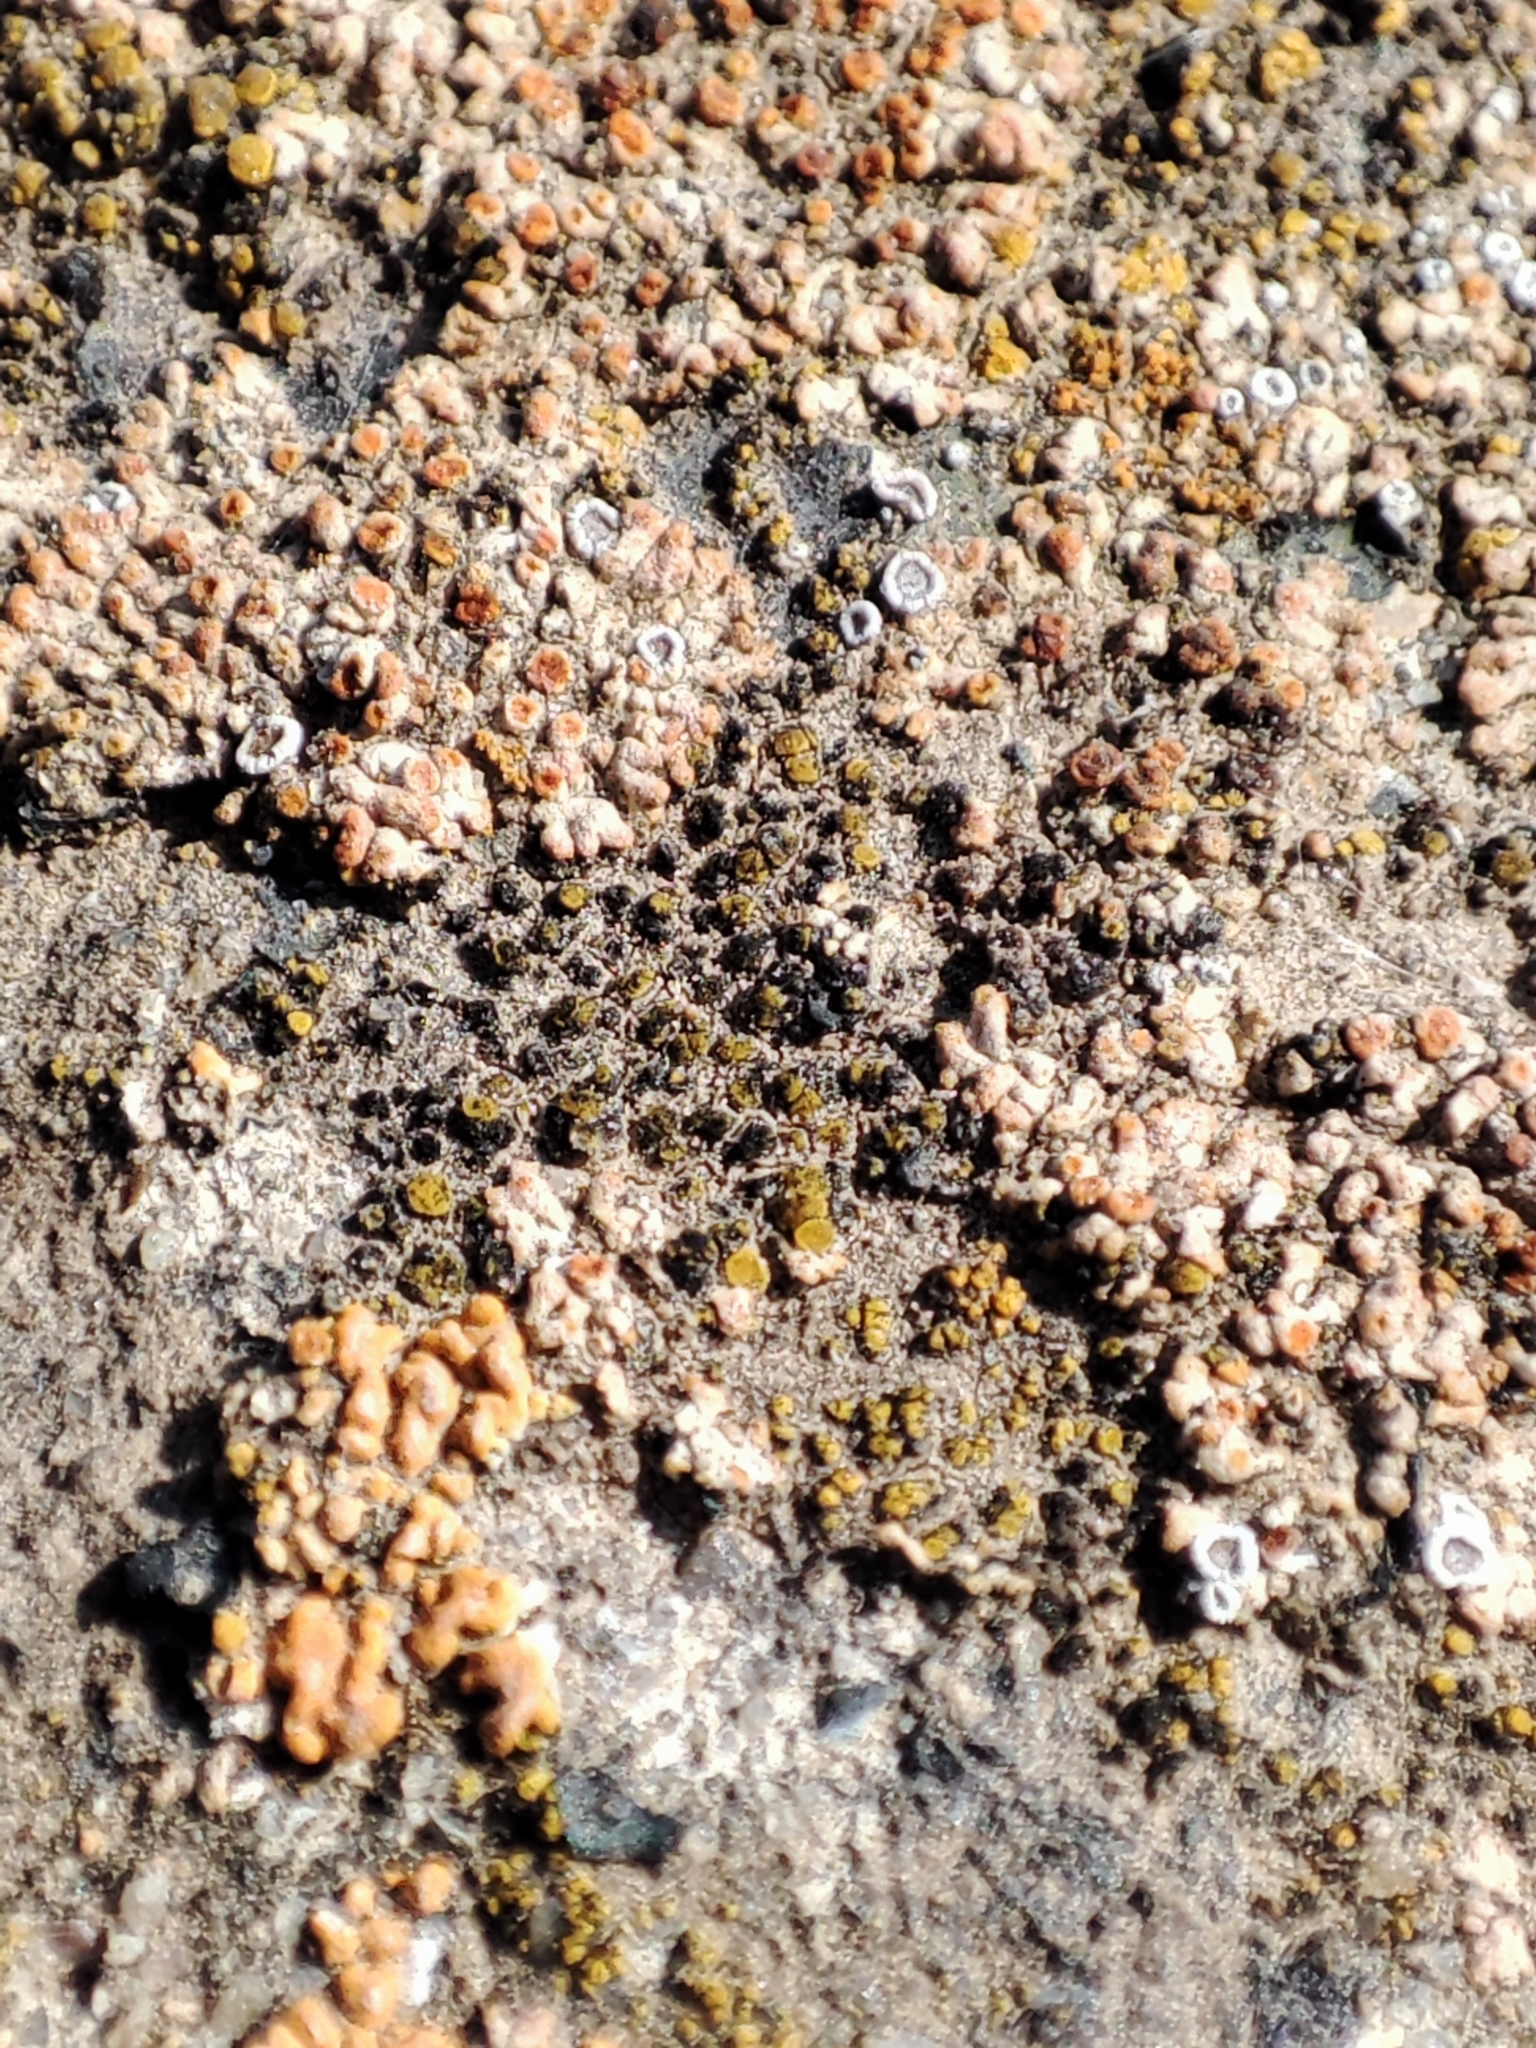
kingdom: Fungi
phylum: Ascomycota
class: Candelariomycetes
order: Candelariales
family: Candelariaceae
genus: Candelariella
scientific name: Candelariella aurella
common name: Hidden goldspeck lichen
